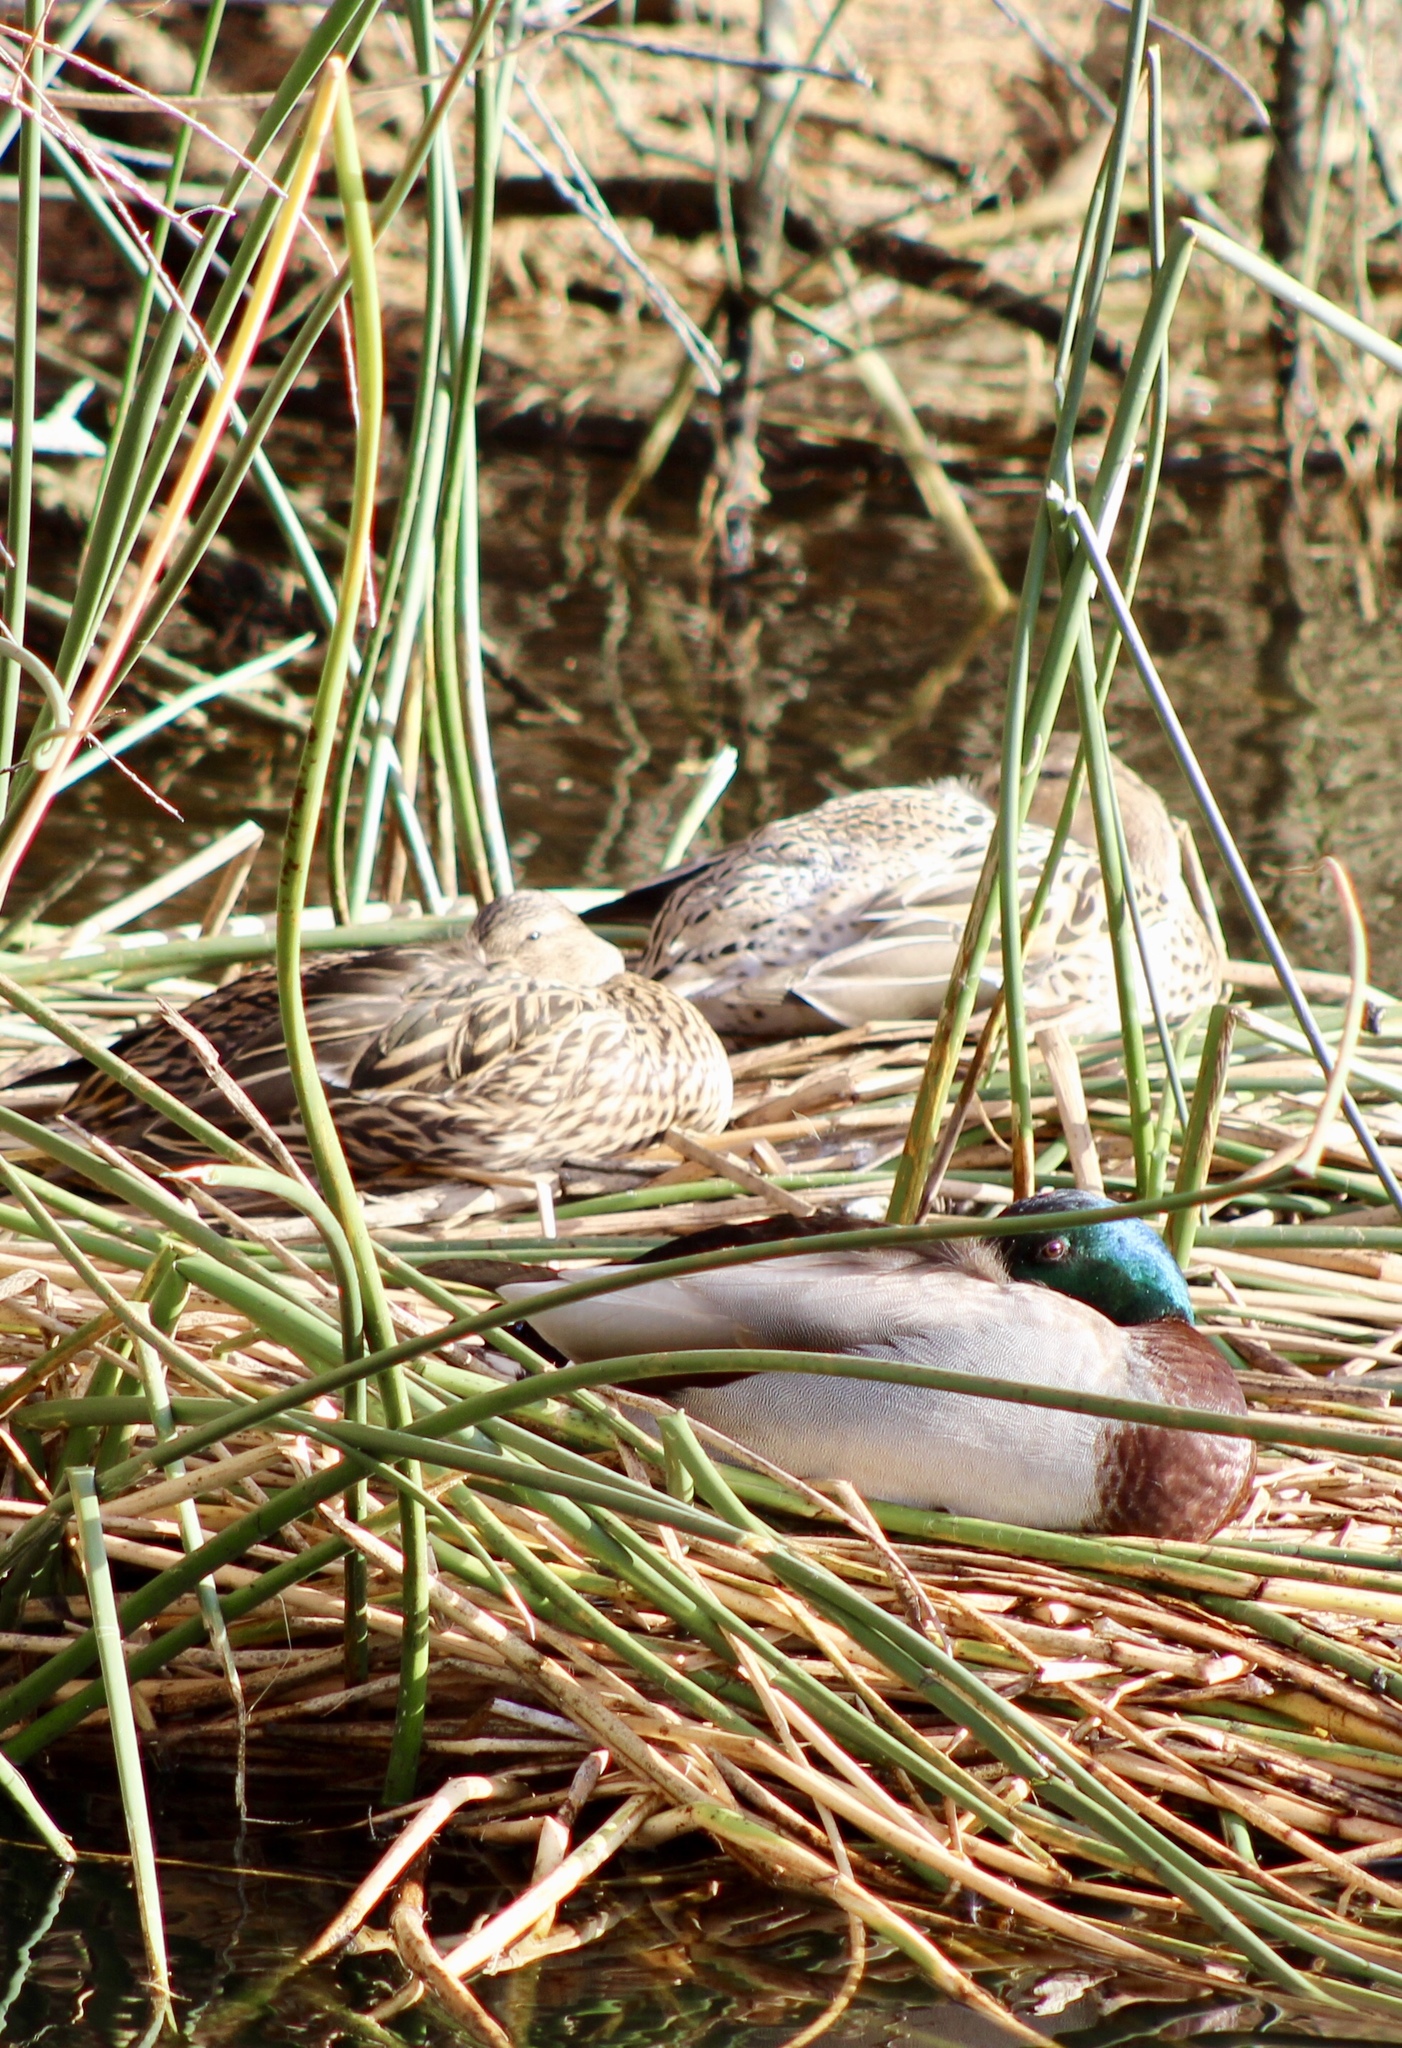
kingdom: Animalia
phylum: Chordata
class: Aves
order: Anseriformes
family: Anatidae
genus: Anas
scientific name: Anas platyrhynchos
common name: Mallard
